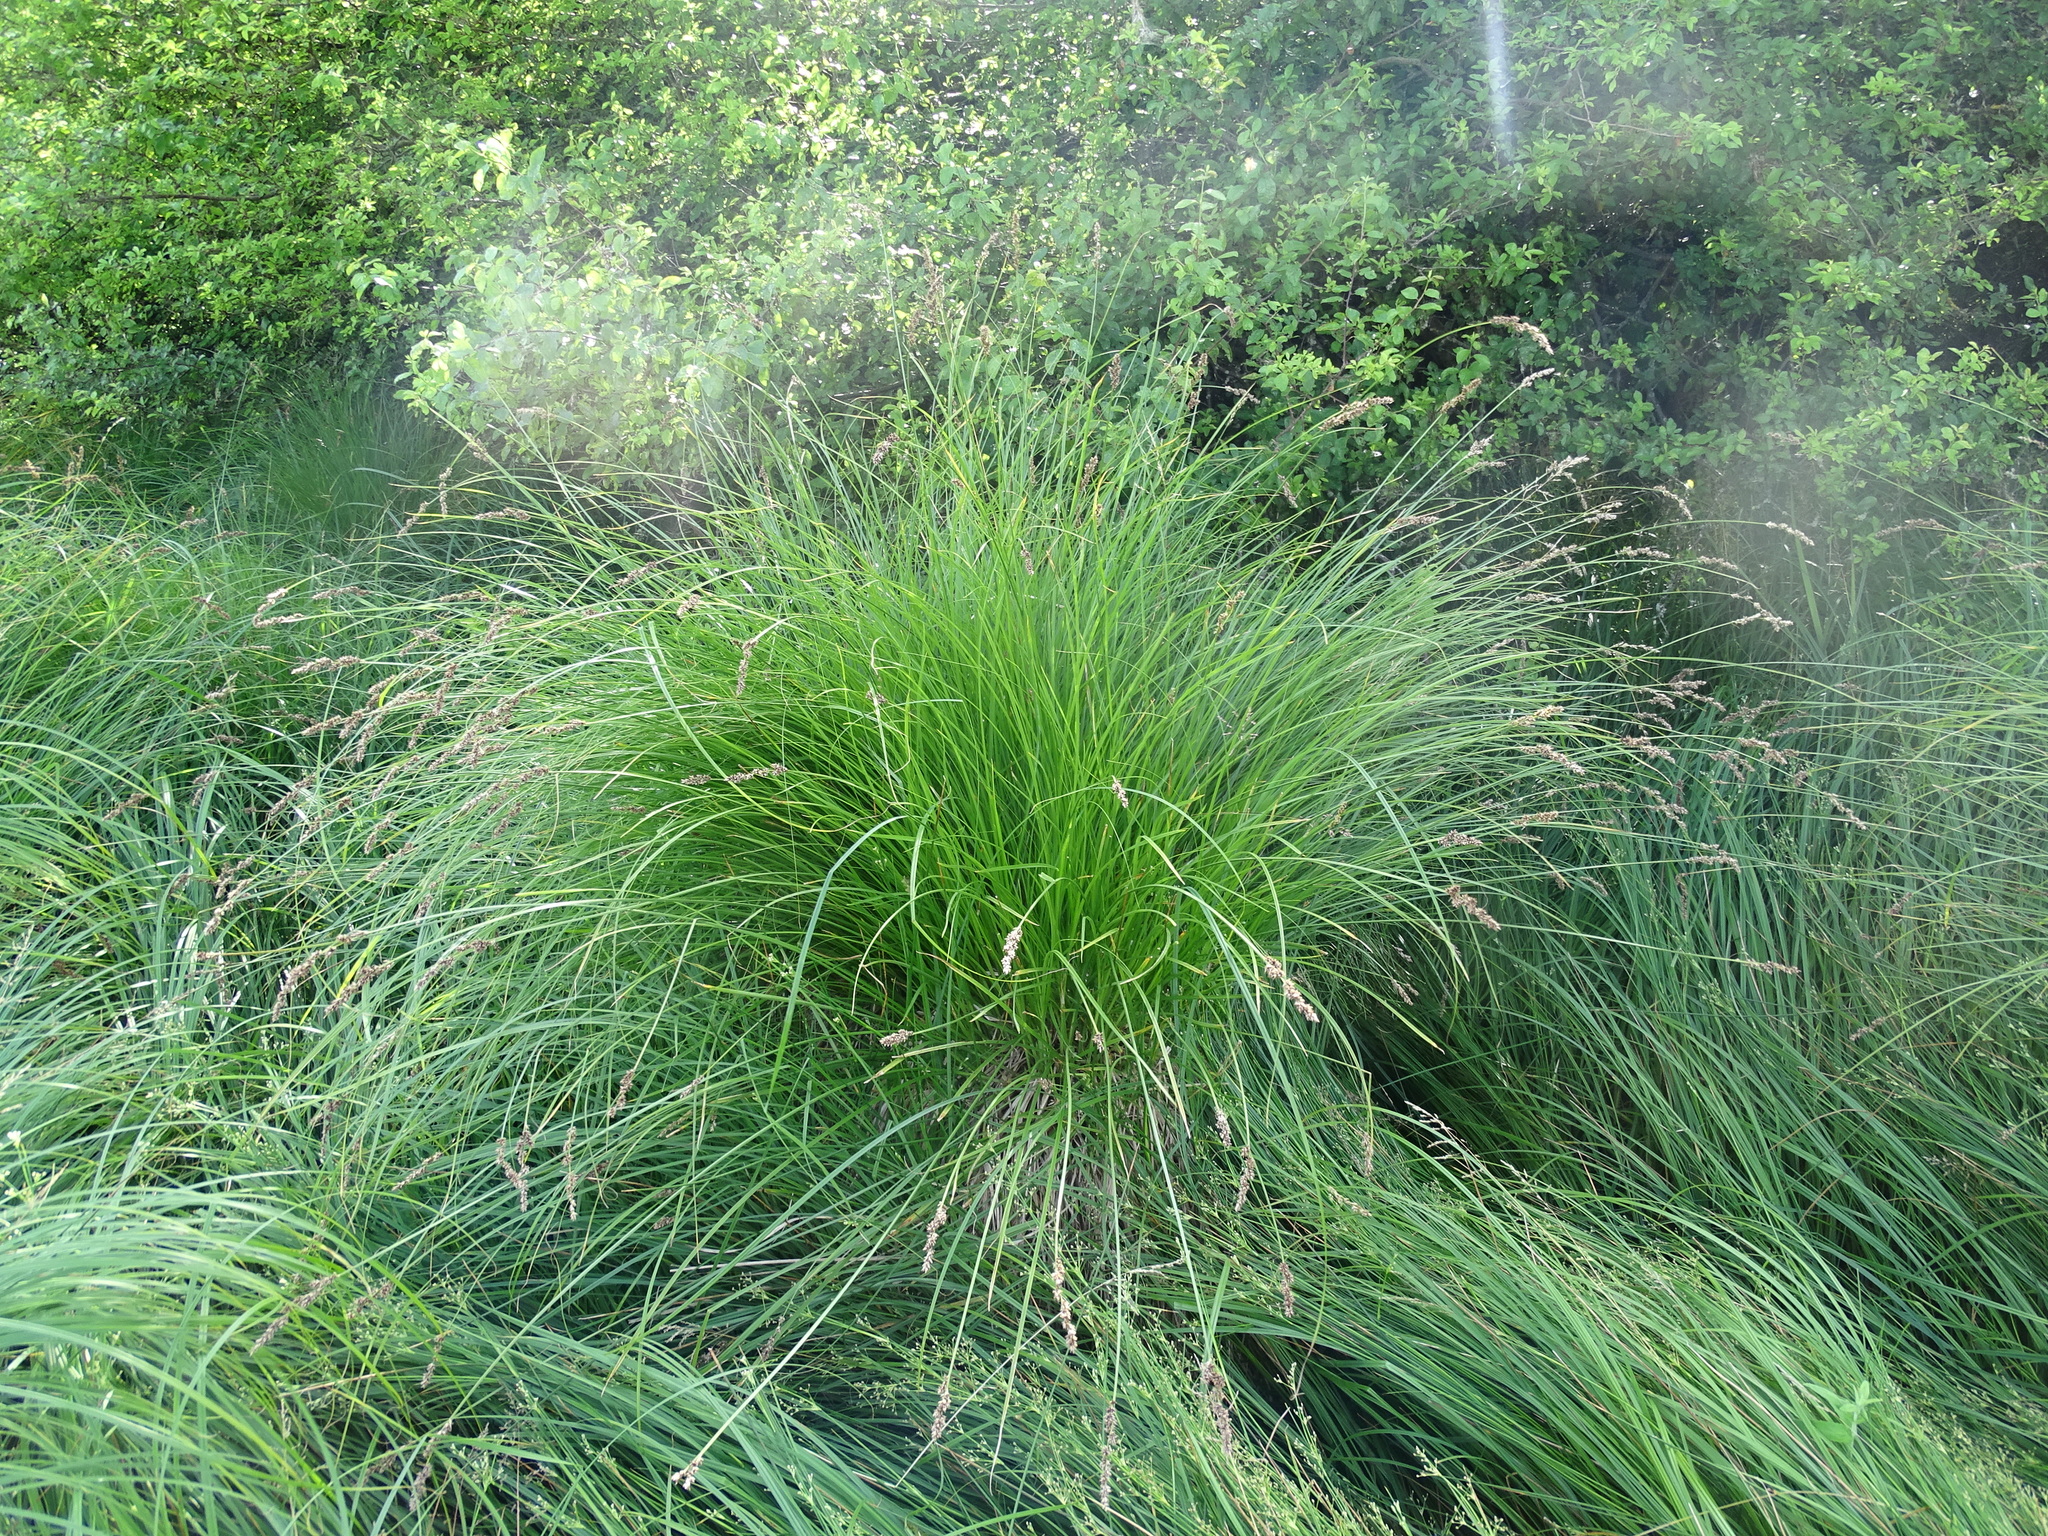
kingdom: Plantae
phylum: Tracheophyta
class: Liliopsida
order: Poales
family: Cyperaceae
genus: Carex
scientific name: Carex paniculata
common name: Greater tussock-sedge
